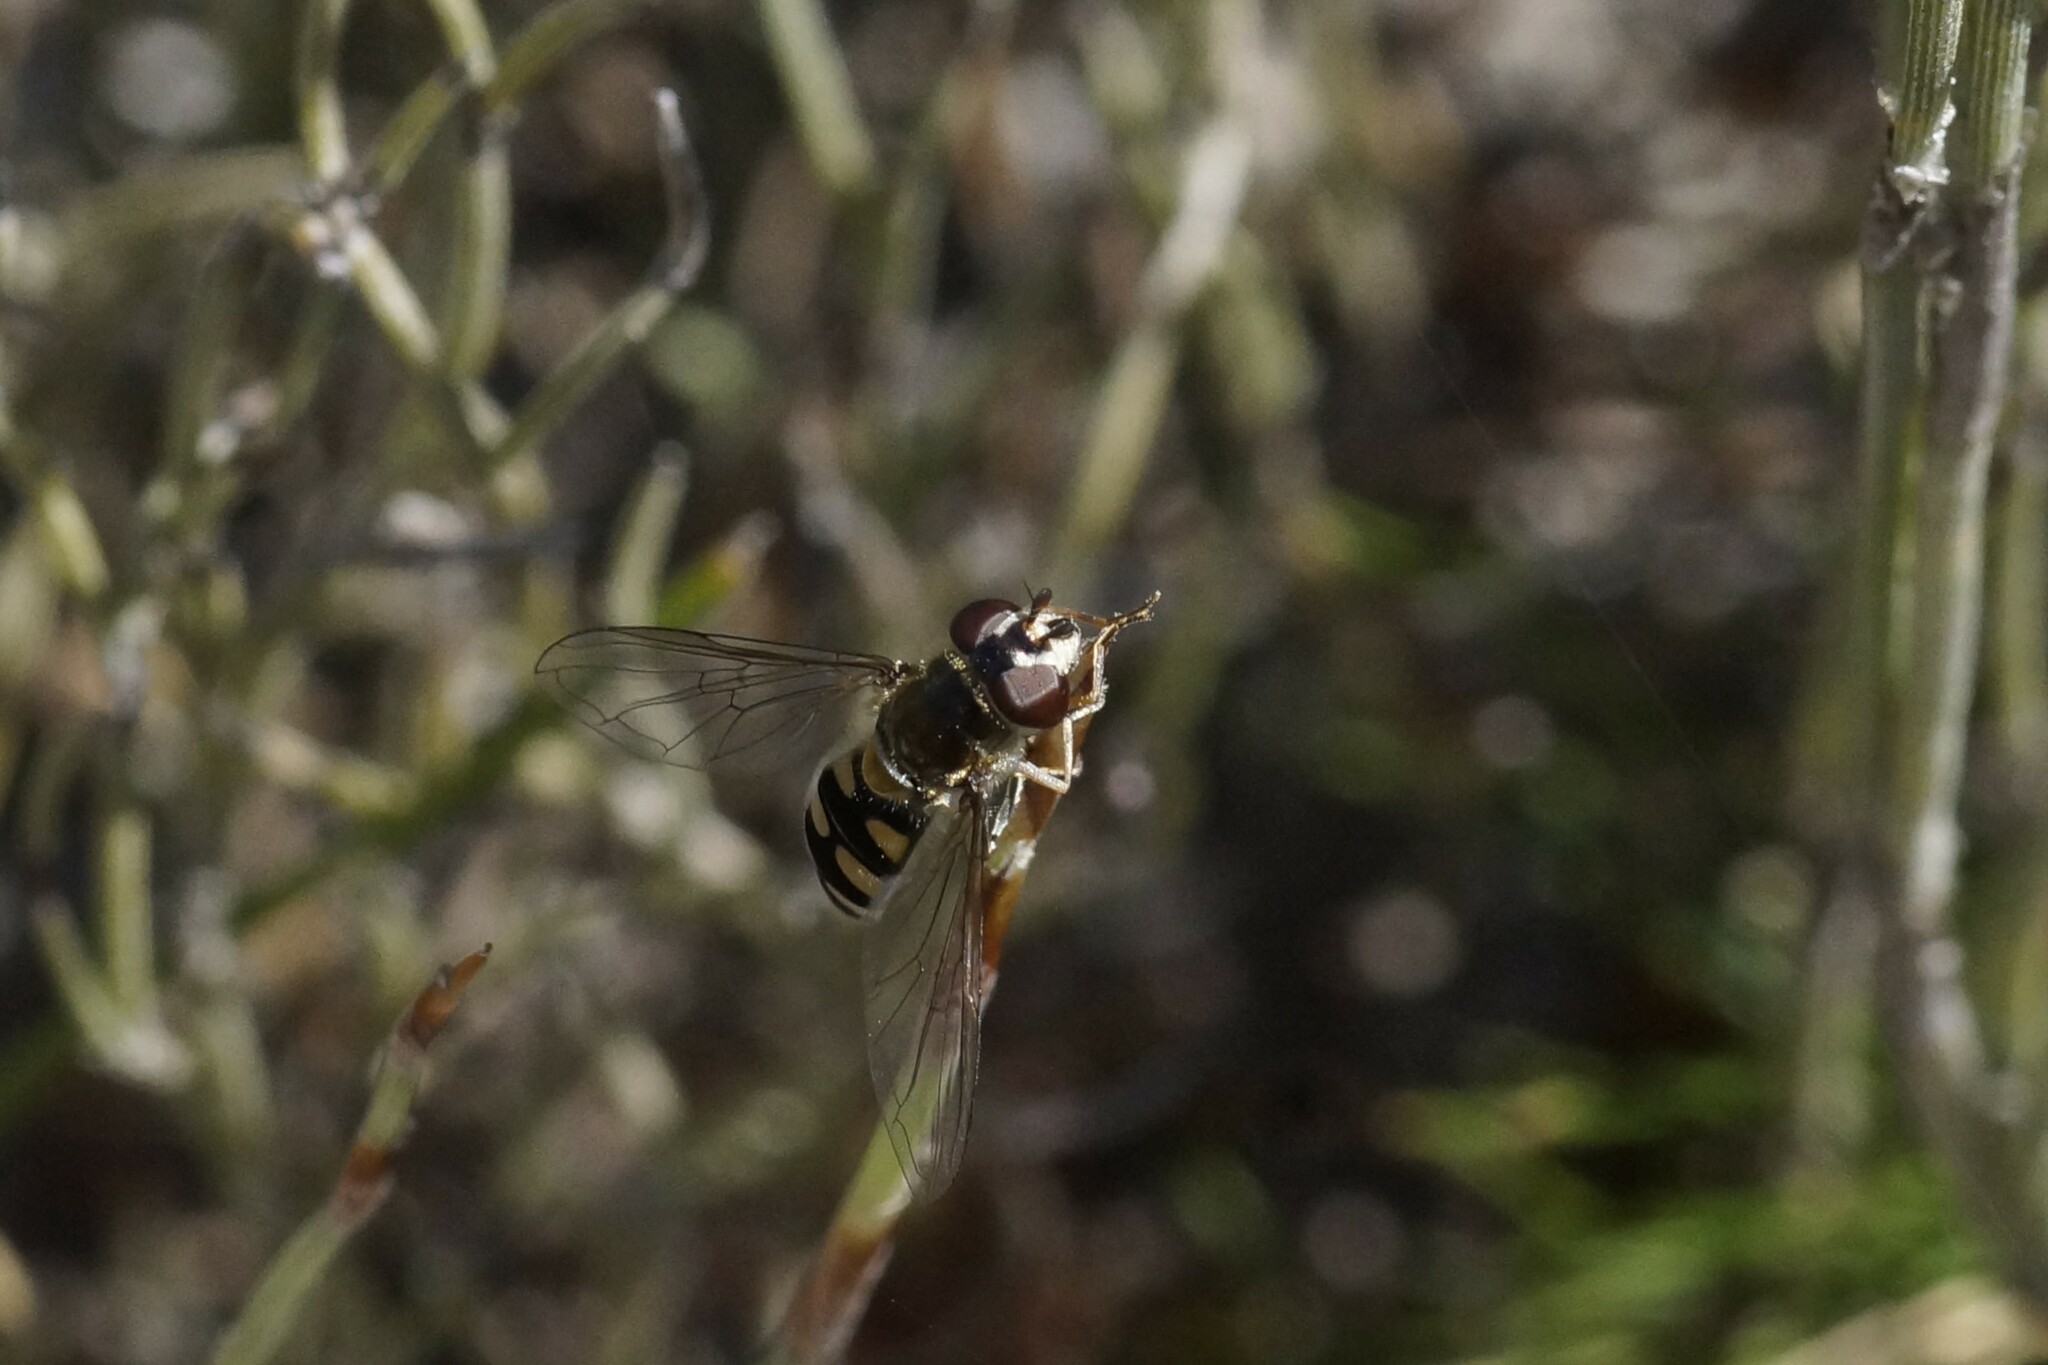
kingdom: Animalia
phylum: Arthropoda
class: Insecta
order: Diptera
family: Syrphidae
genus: Melangyna
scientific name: Melangyna viridiceps
